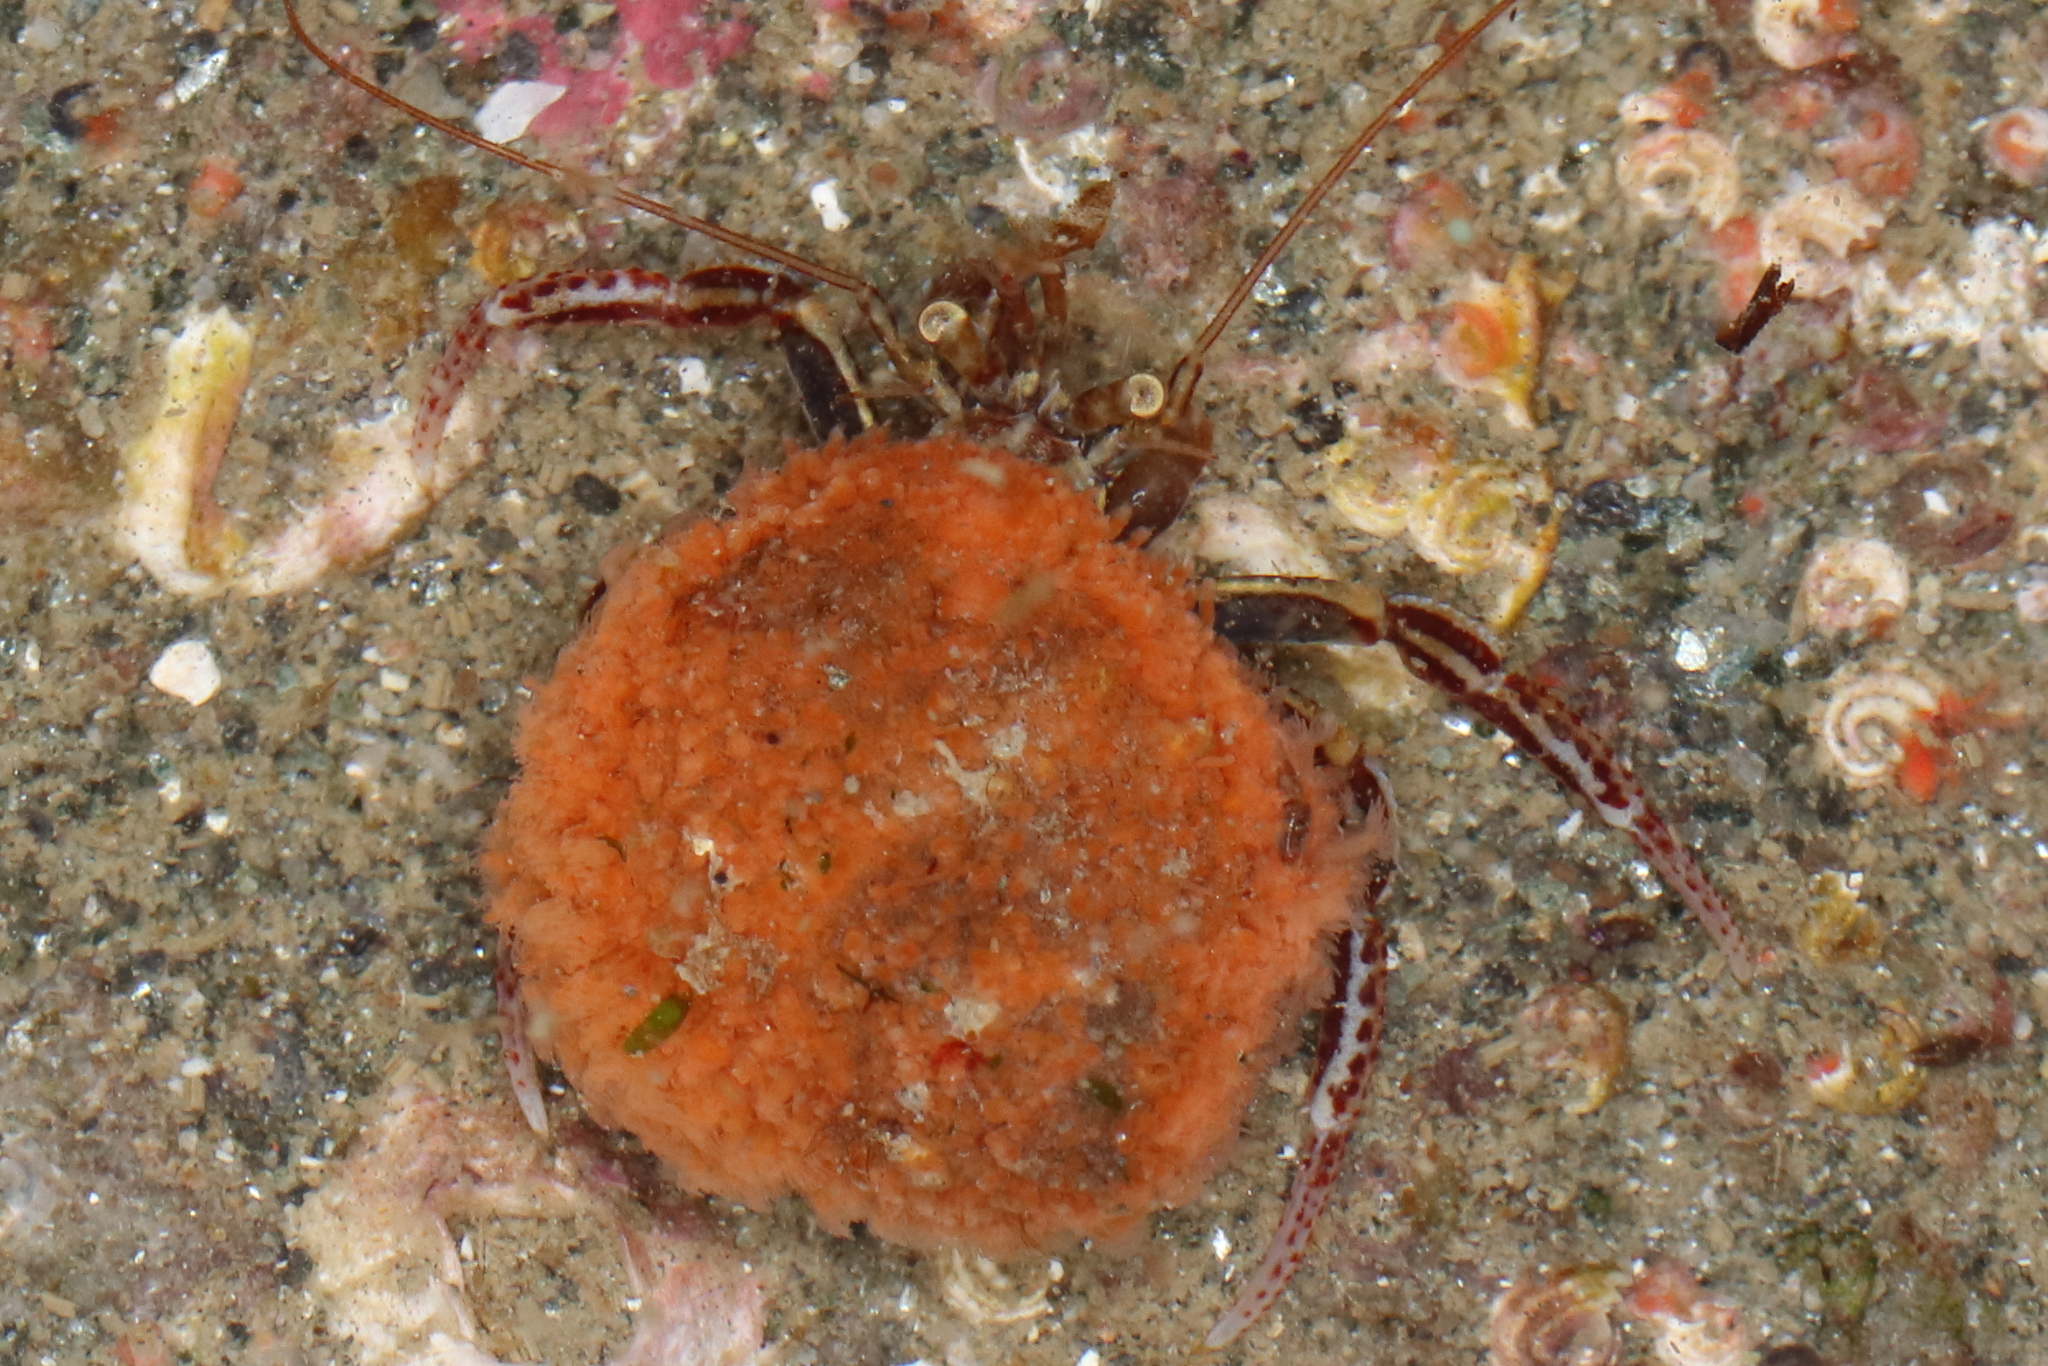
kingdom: Animalia
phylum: Arthropoda
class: Malacostraca
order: Decapoda
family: Paguridae
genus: Elassochirus
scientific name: Elassochirus tenuimanus
